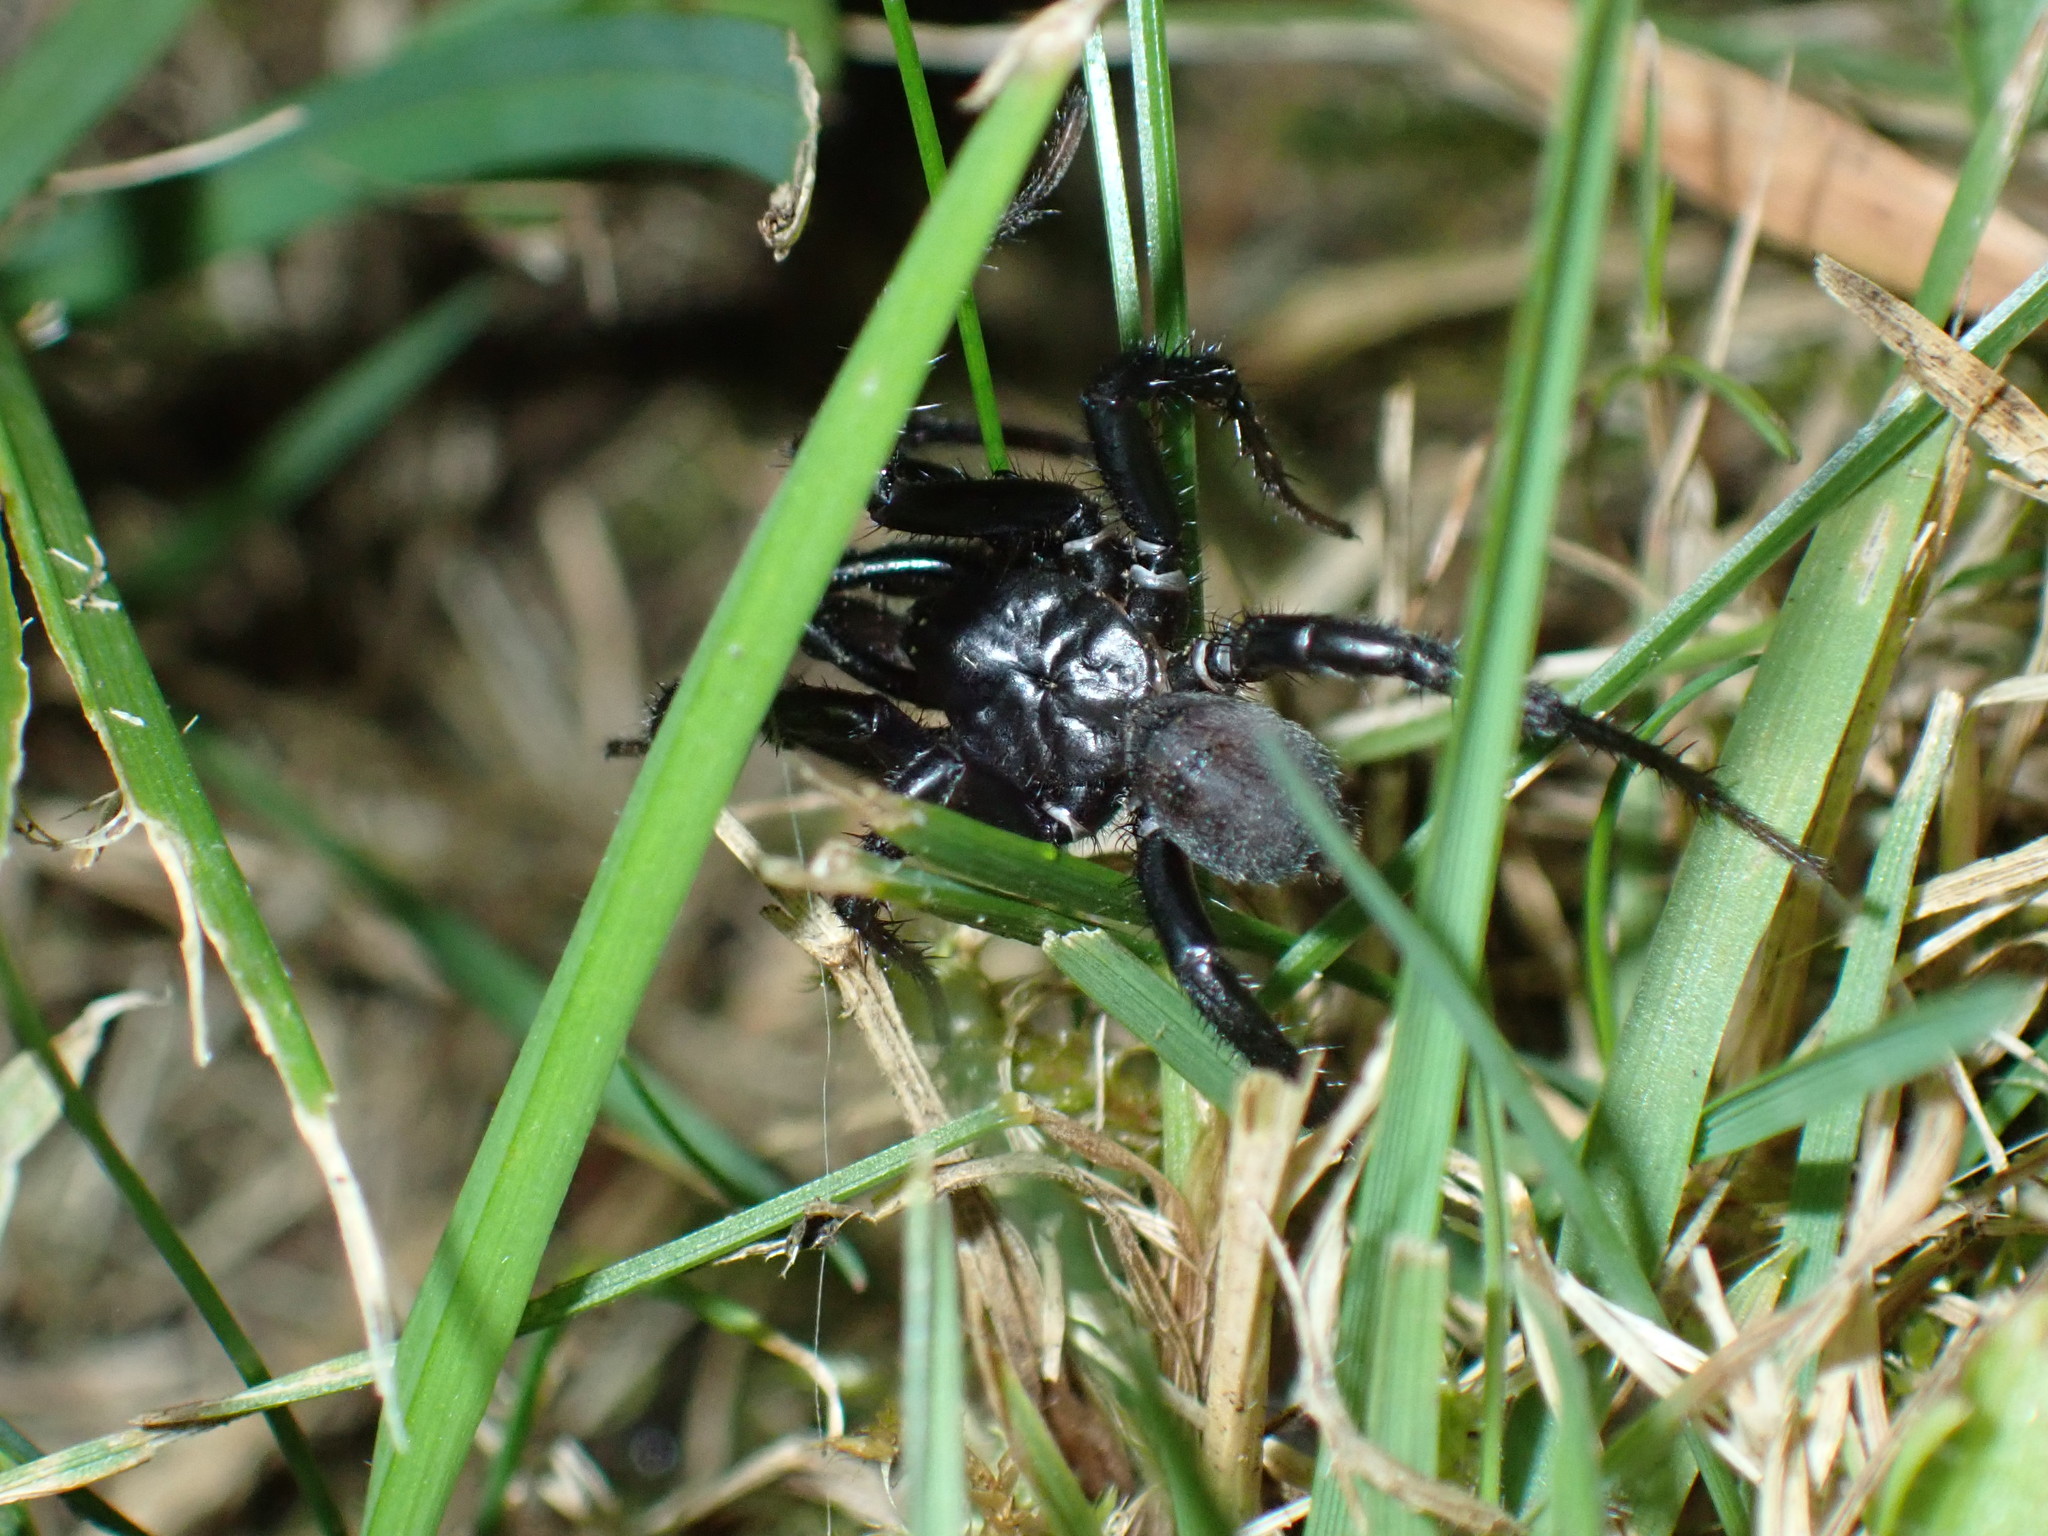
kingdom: Animalia
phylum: Arthropoda
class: Arachnida
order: Araneae
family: Antrodiaetidae
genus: Antrodiaetus
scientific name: Antrodiaetus pacificus
